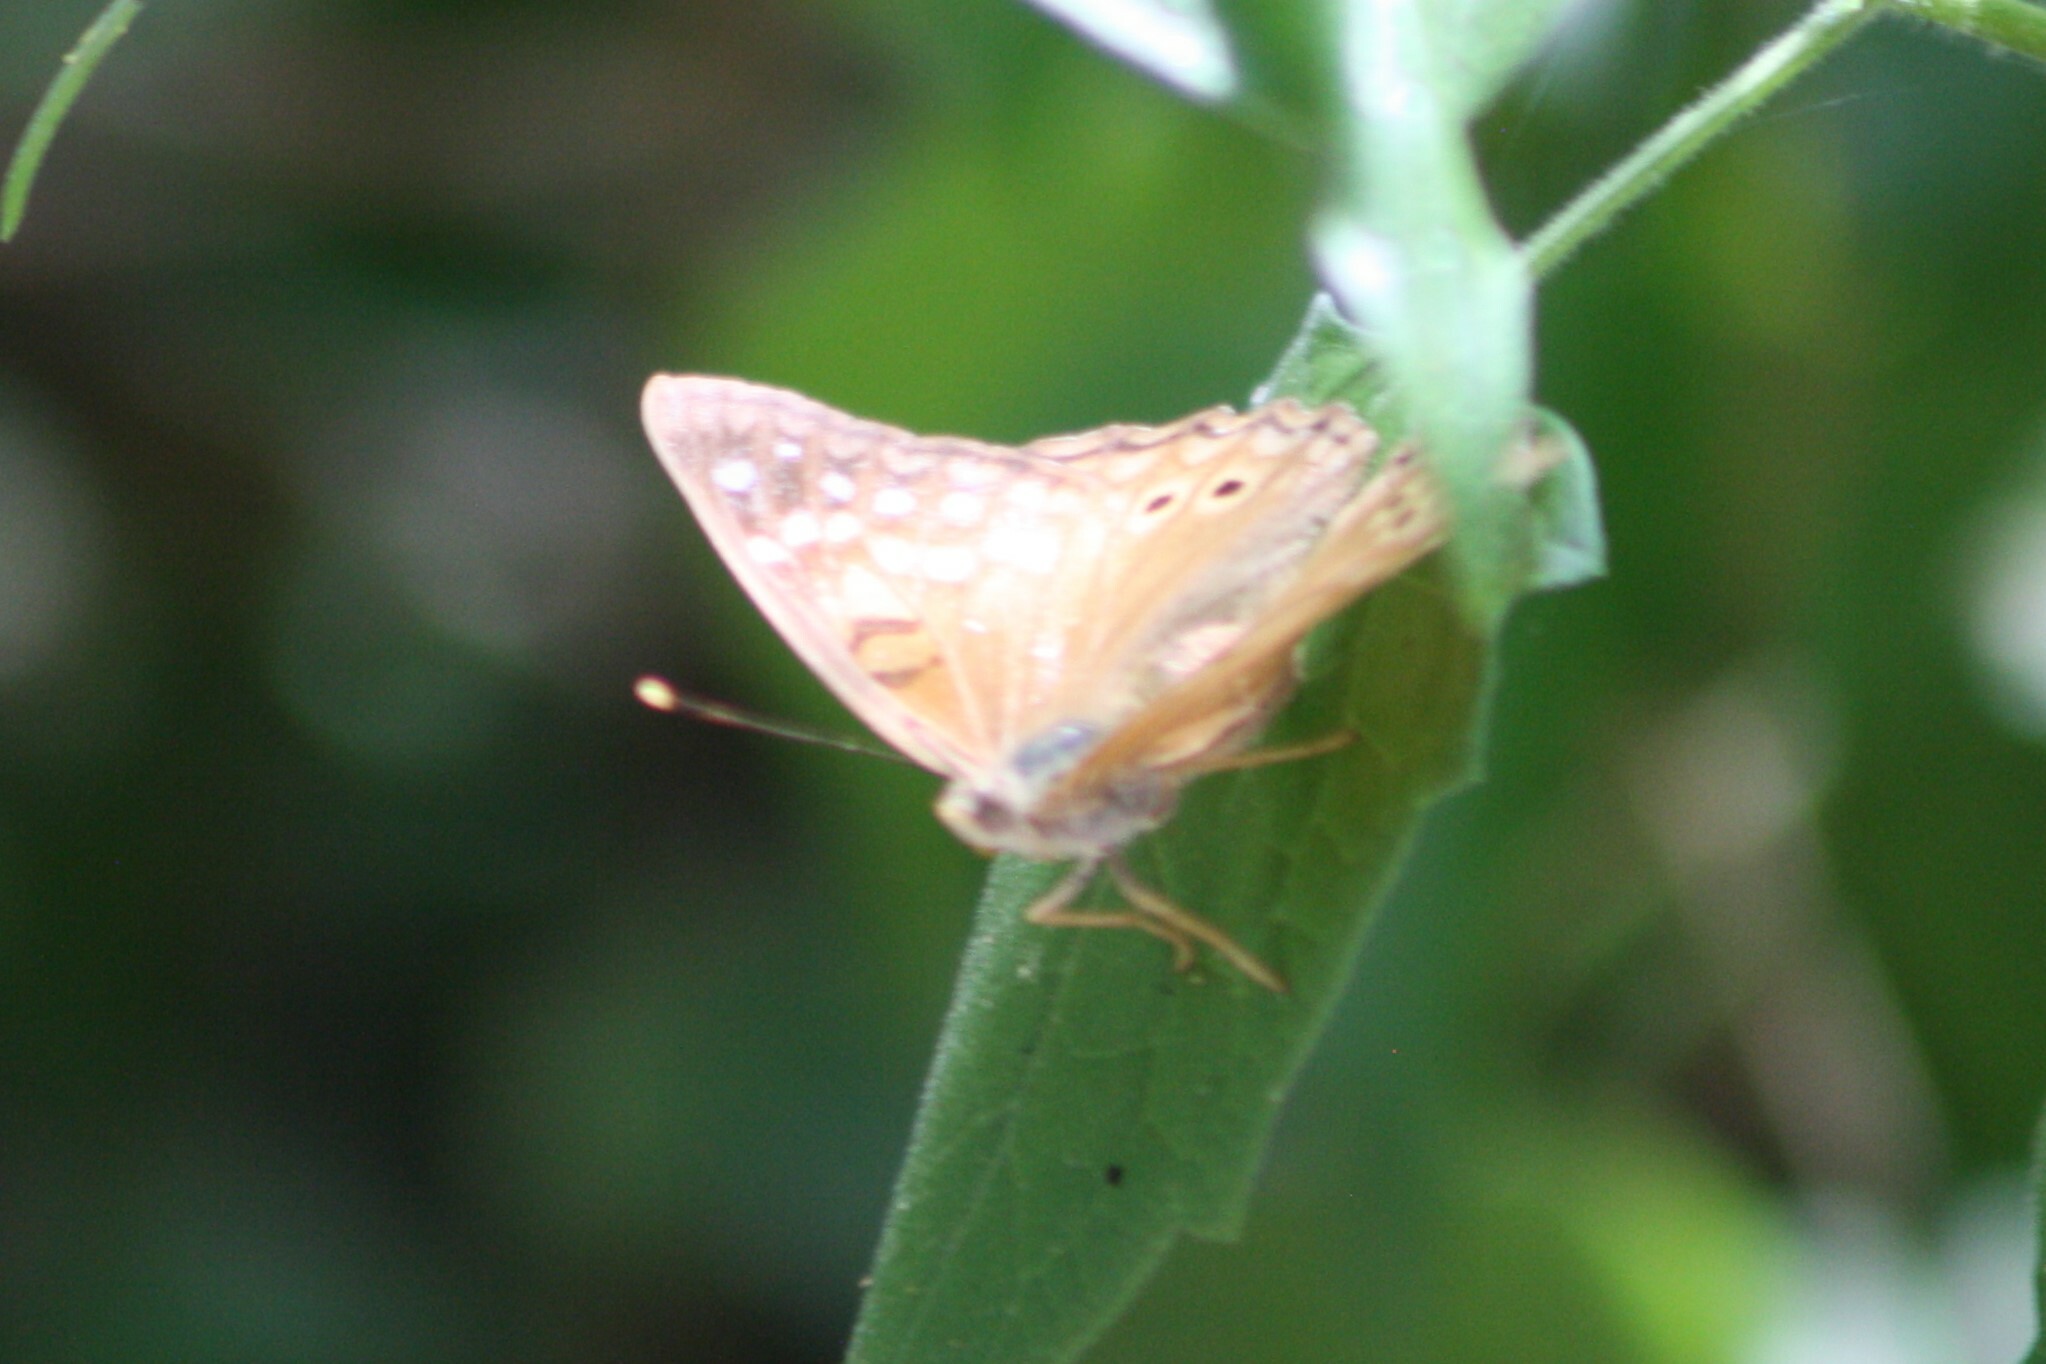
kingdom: Animalia
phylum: Arthropoda
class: Insecta
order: Lepidoptera
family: Nymphalidae
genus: Asterocampa
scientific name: Asterocampa clyton
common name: Tawny emperor
